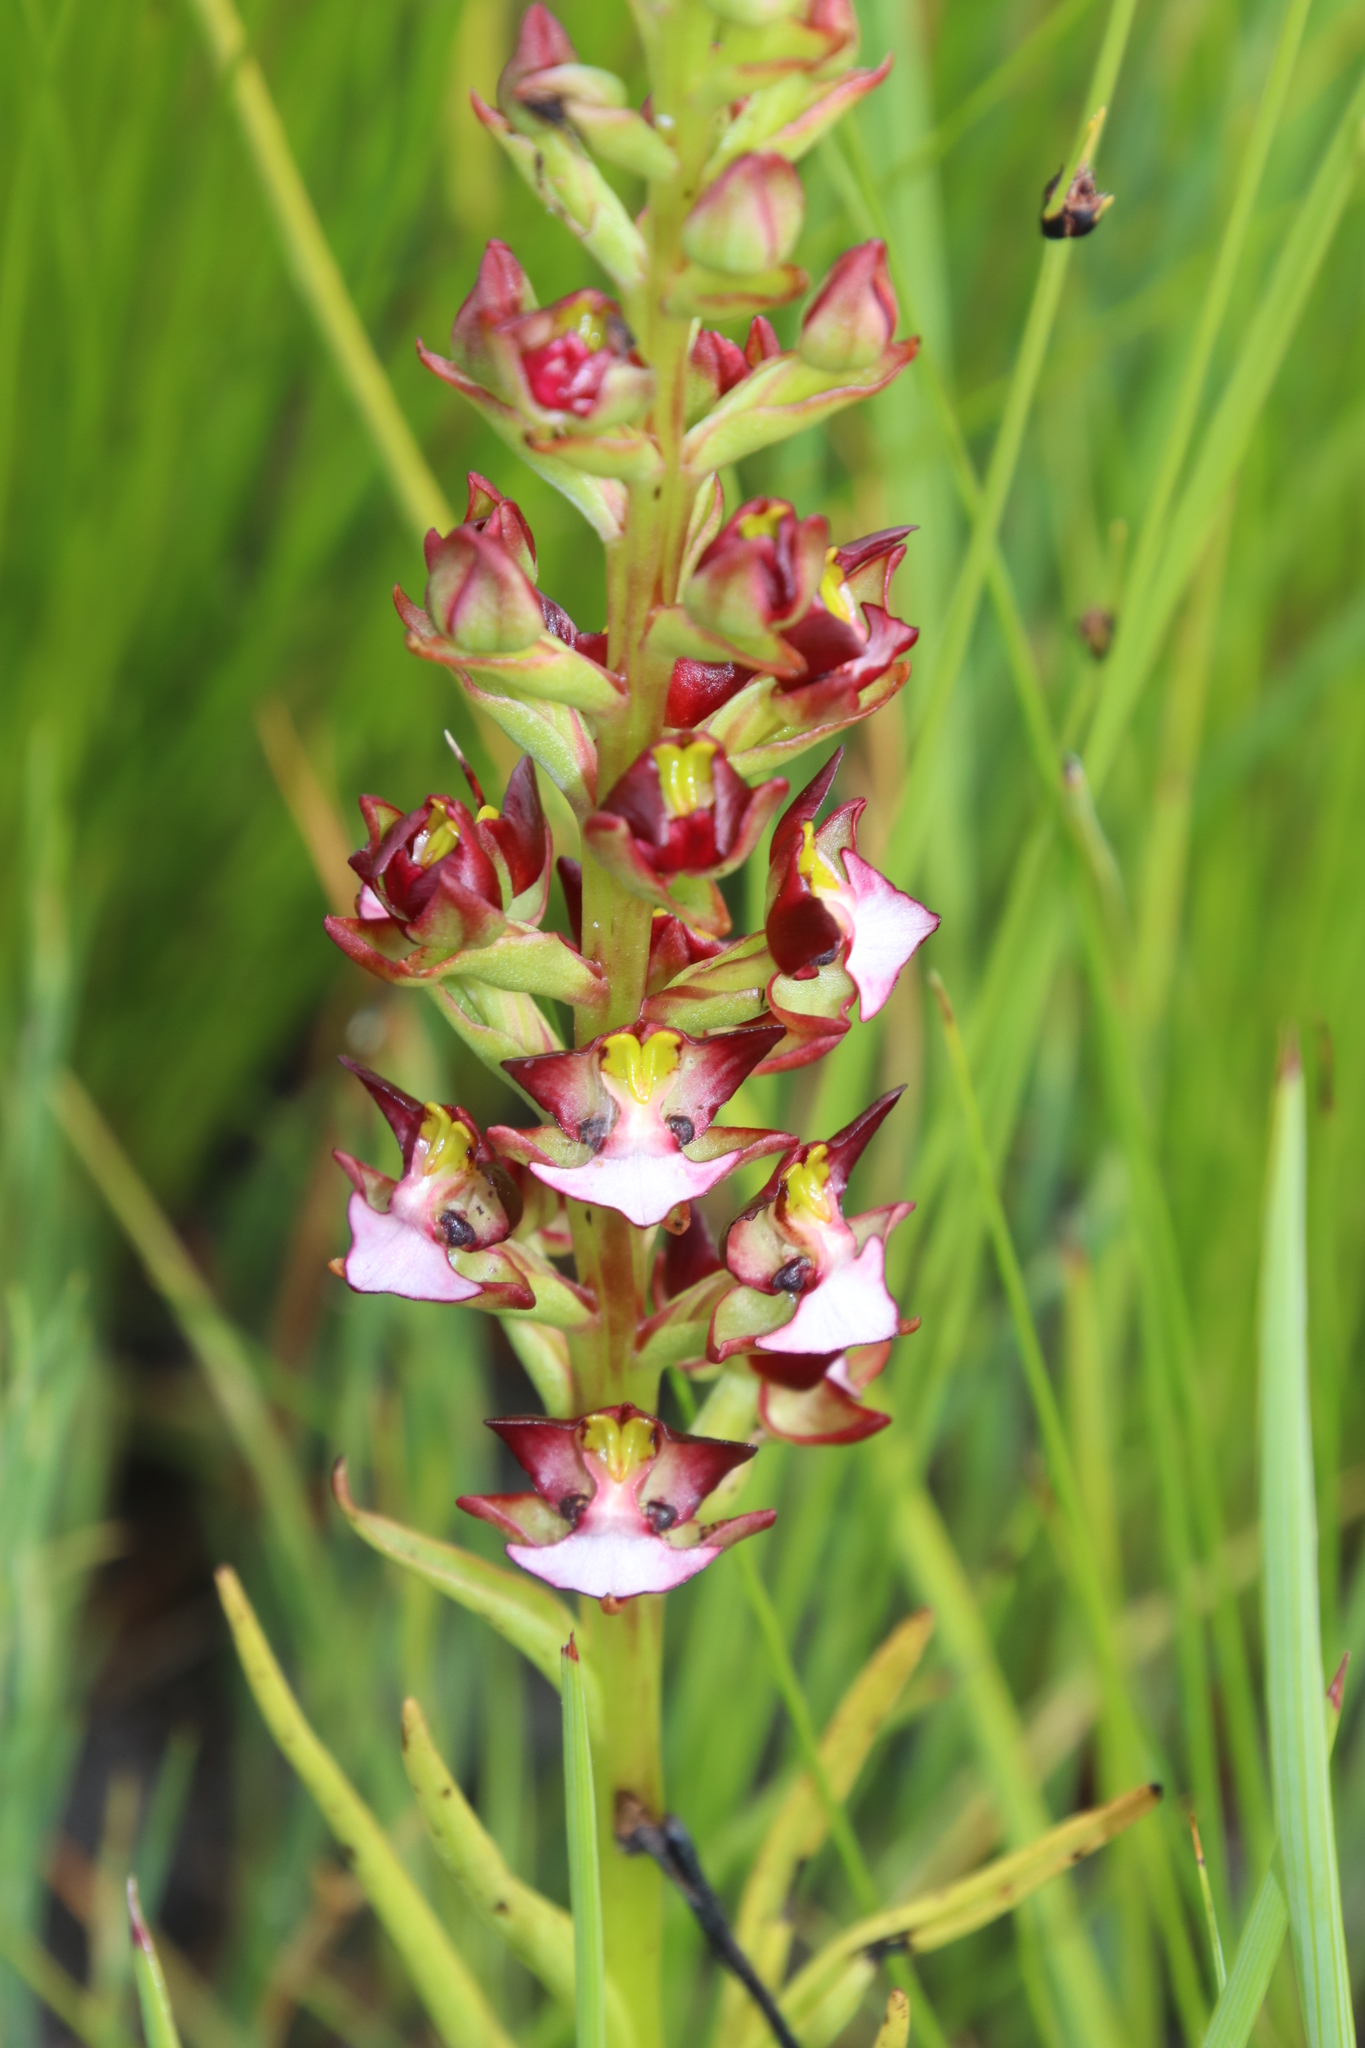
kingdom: Plantae
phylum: Tracheophyta
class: Liliopsida
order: Asparagales
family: Orchidaceae
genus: Evotella
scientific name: Evotella rubiginosa
